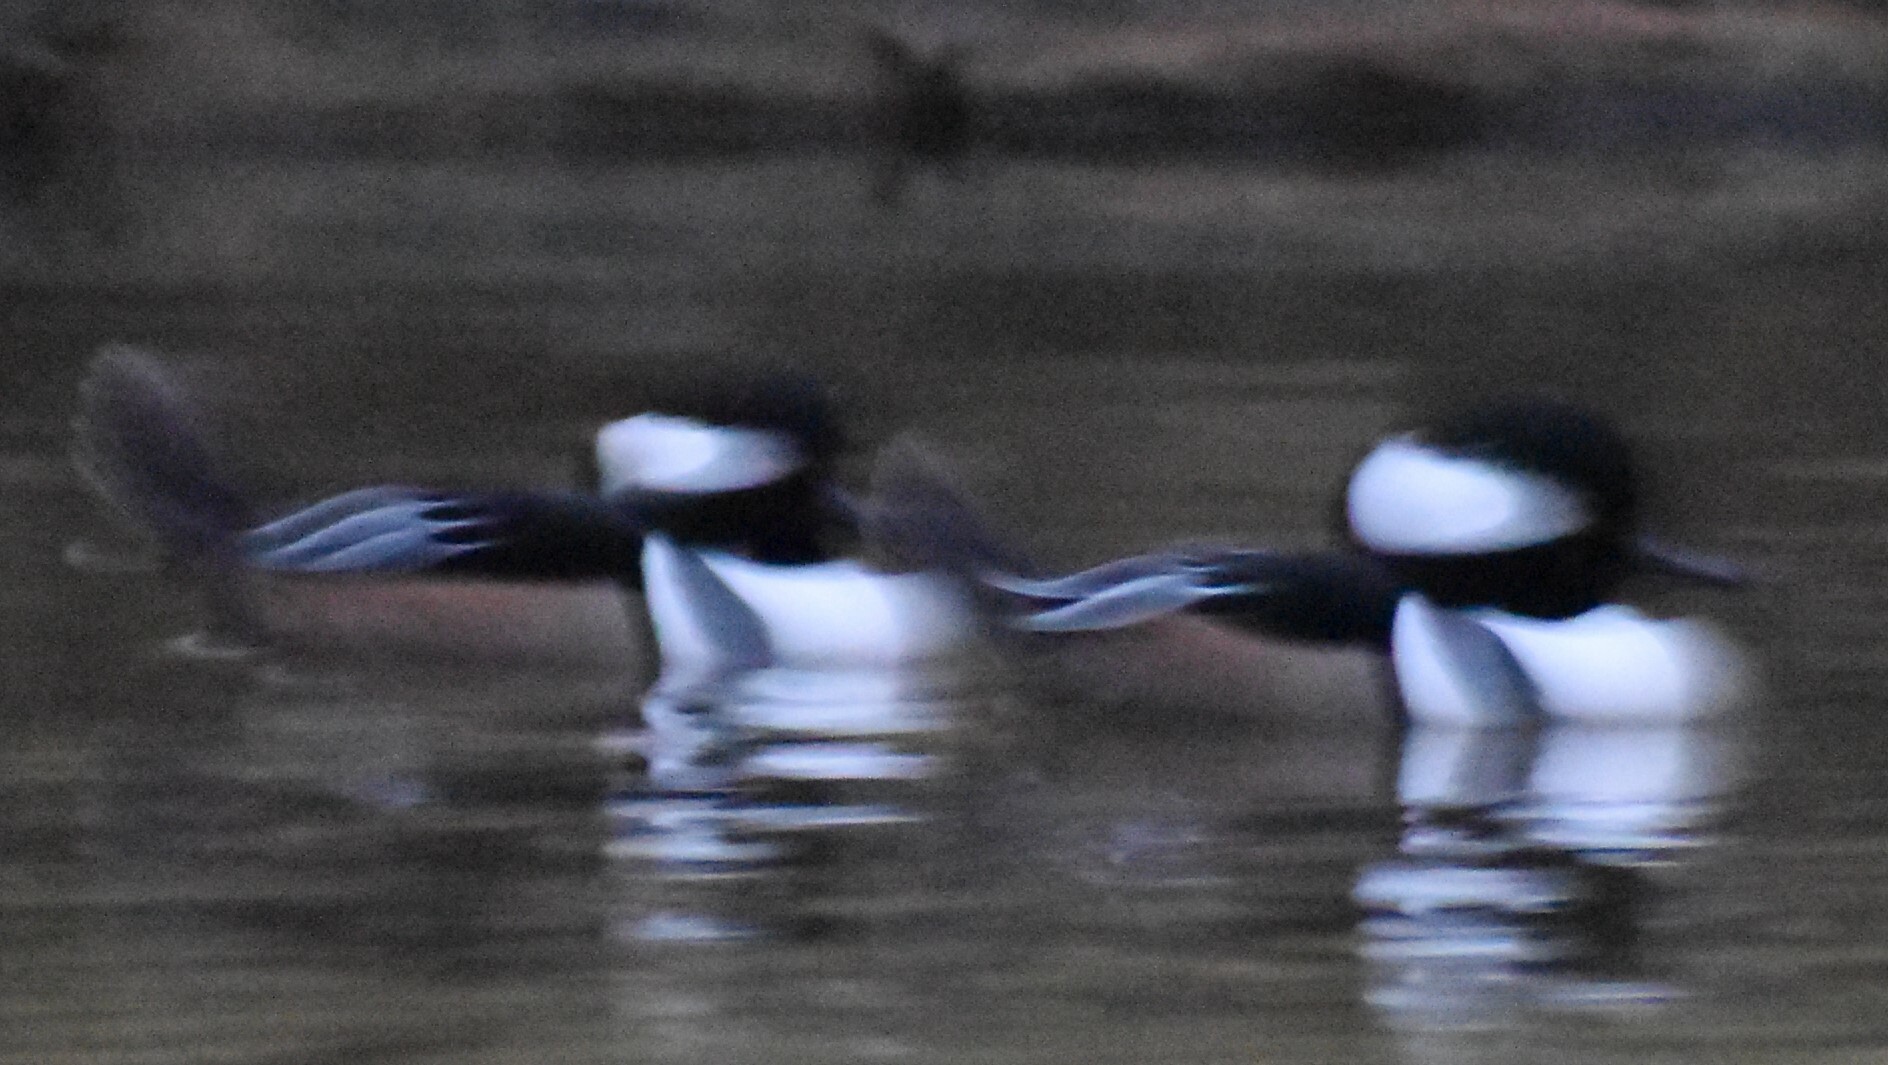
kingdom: Animalia
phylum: Chordata
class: Aves
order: Anseriformes
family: Anatidae
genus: Lophodytes
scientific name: Lophodytes cucullatus
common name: Hooded merganser
